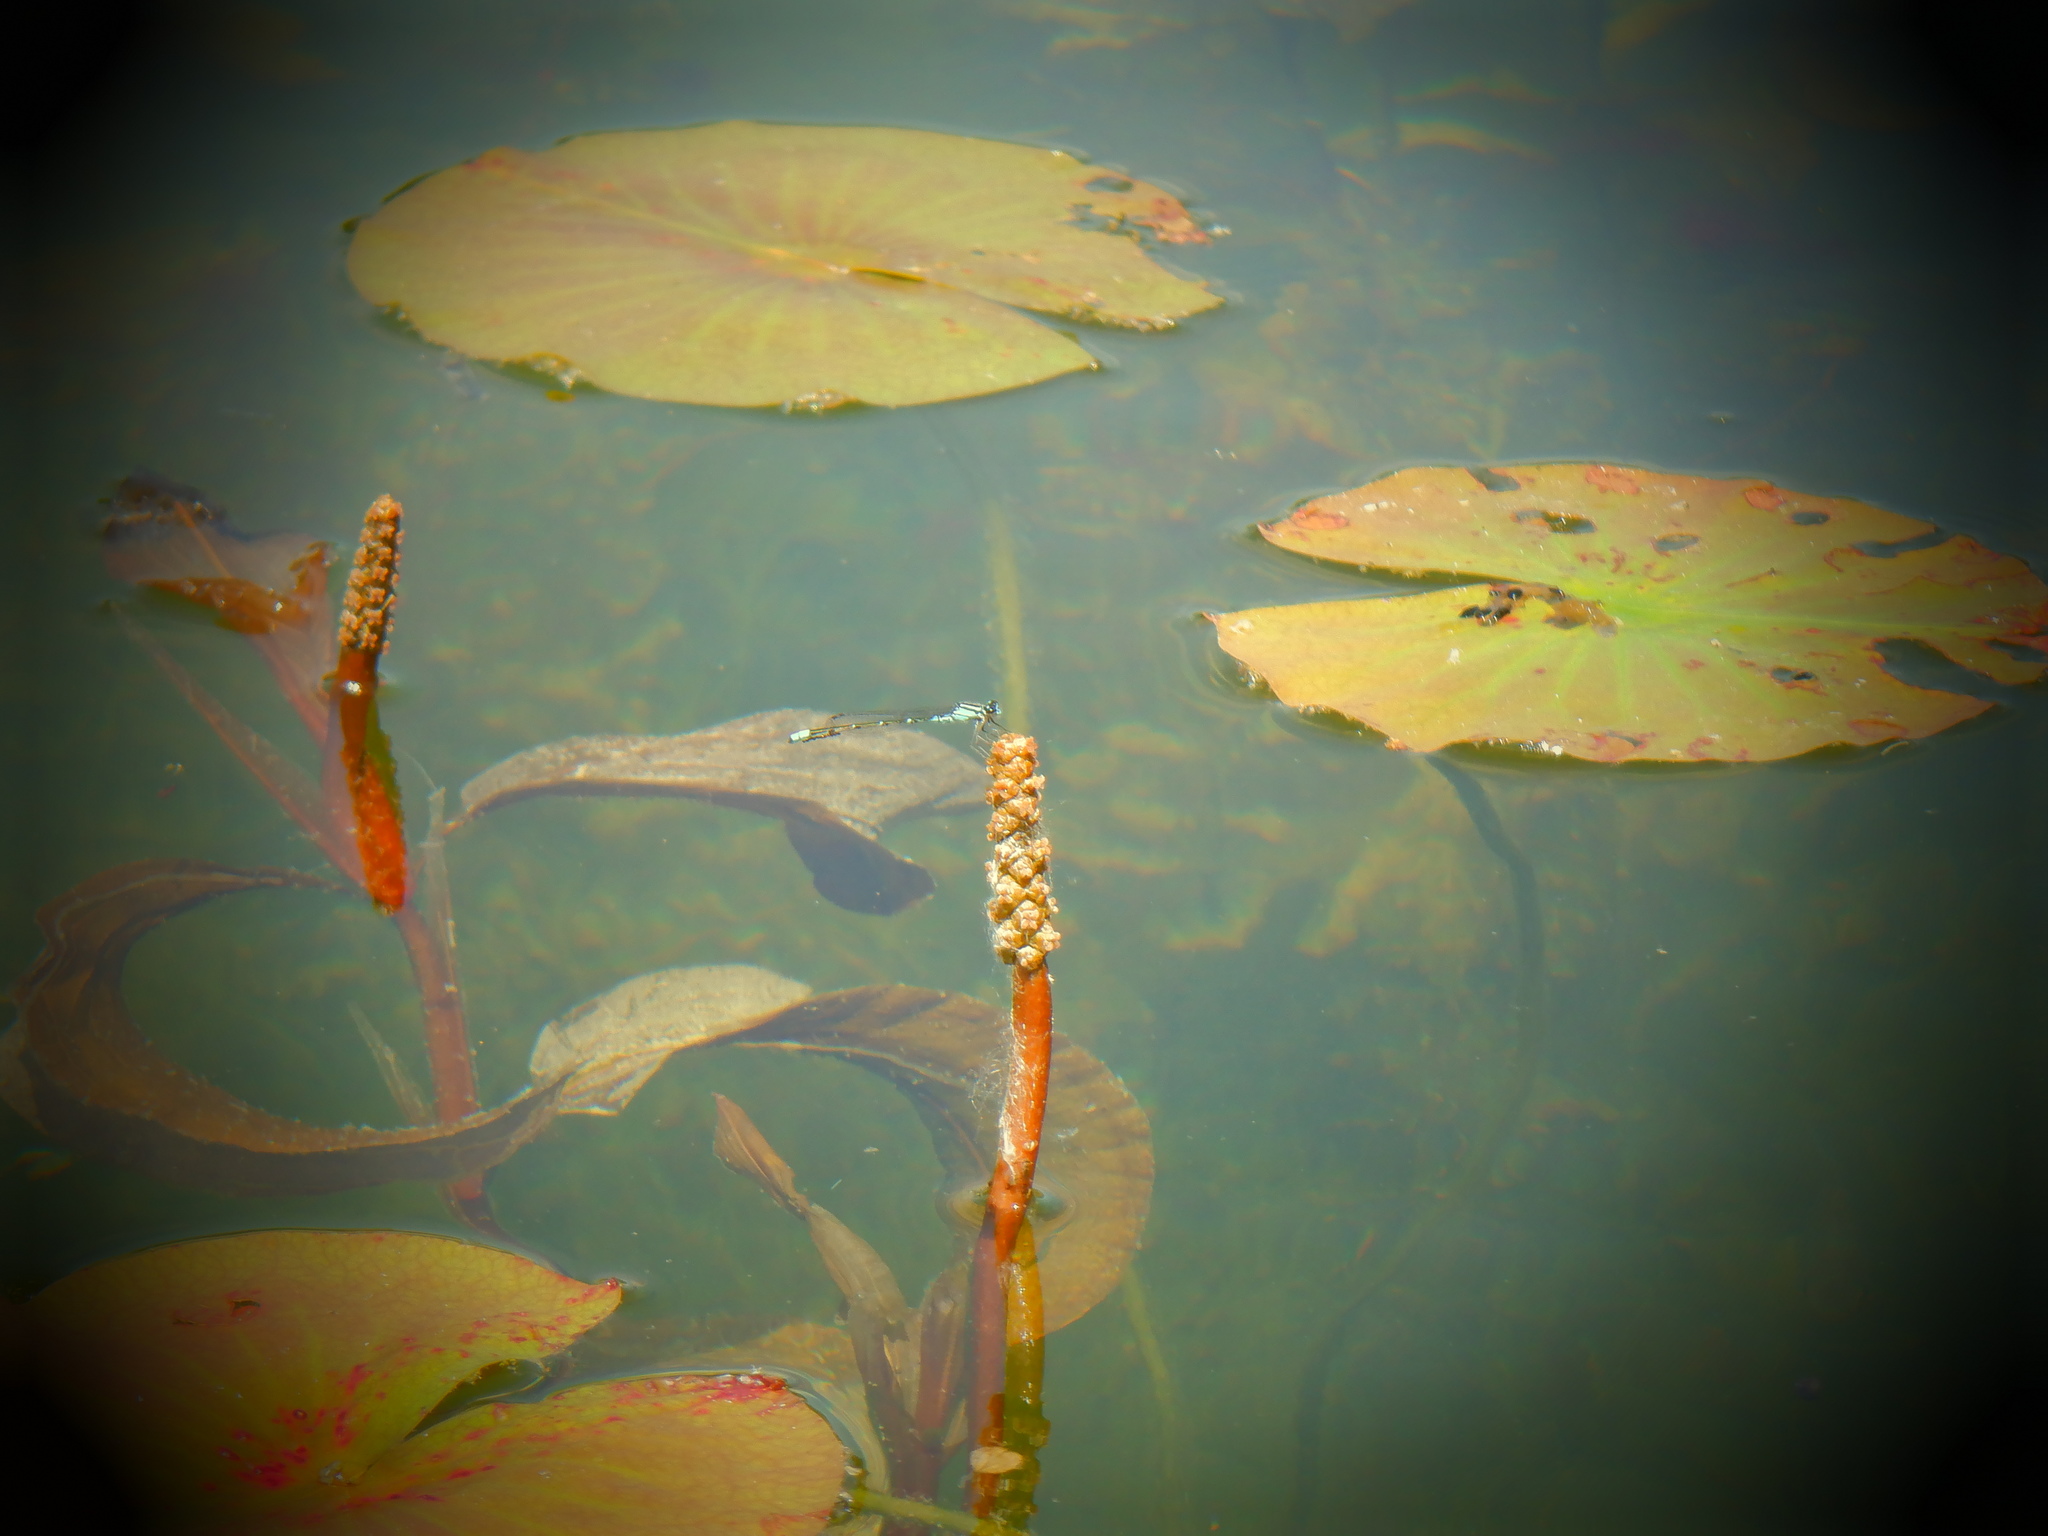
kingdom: Plantae
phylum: Tracheophyta
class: Magnoliopsida
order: Nymphaeales
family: Nymphaeaceae
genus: Nymphaea
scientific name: Nymphaea odorata
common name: Fragrant water-lily
